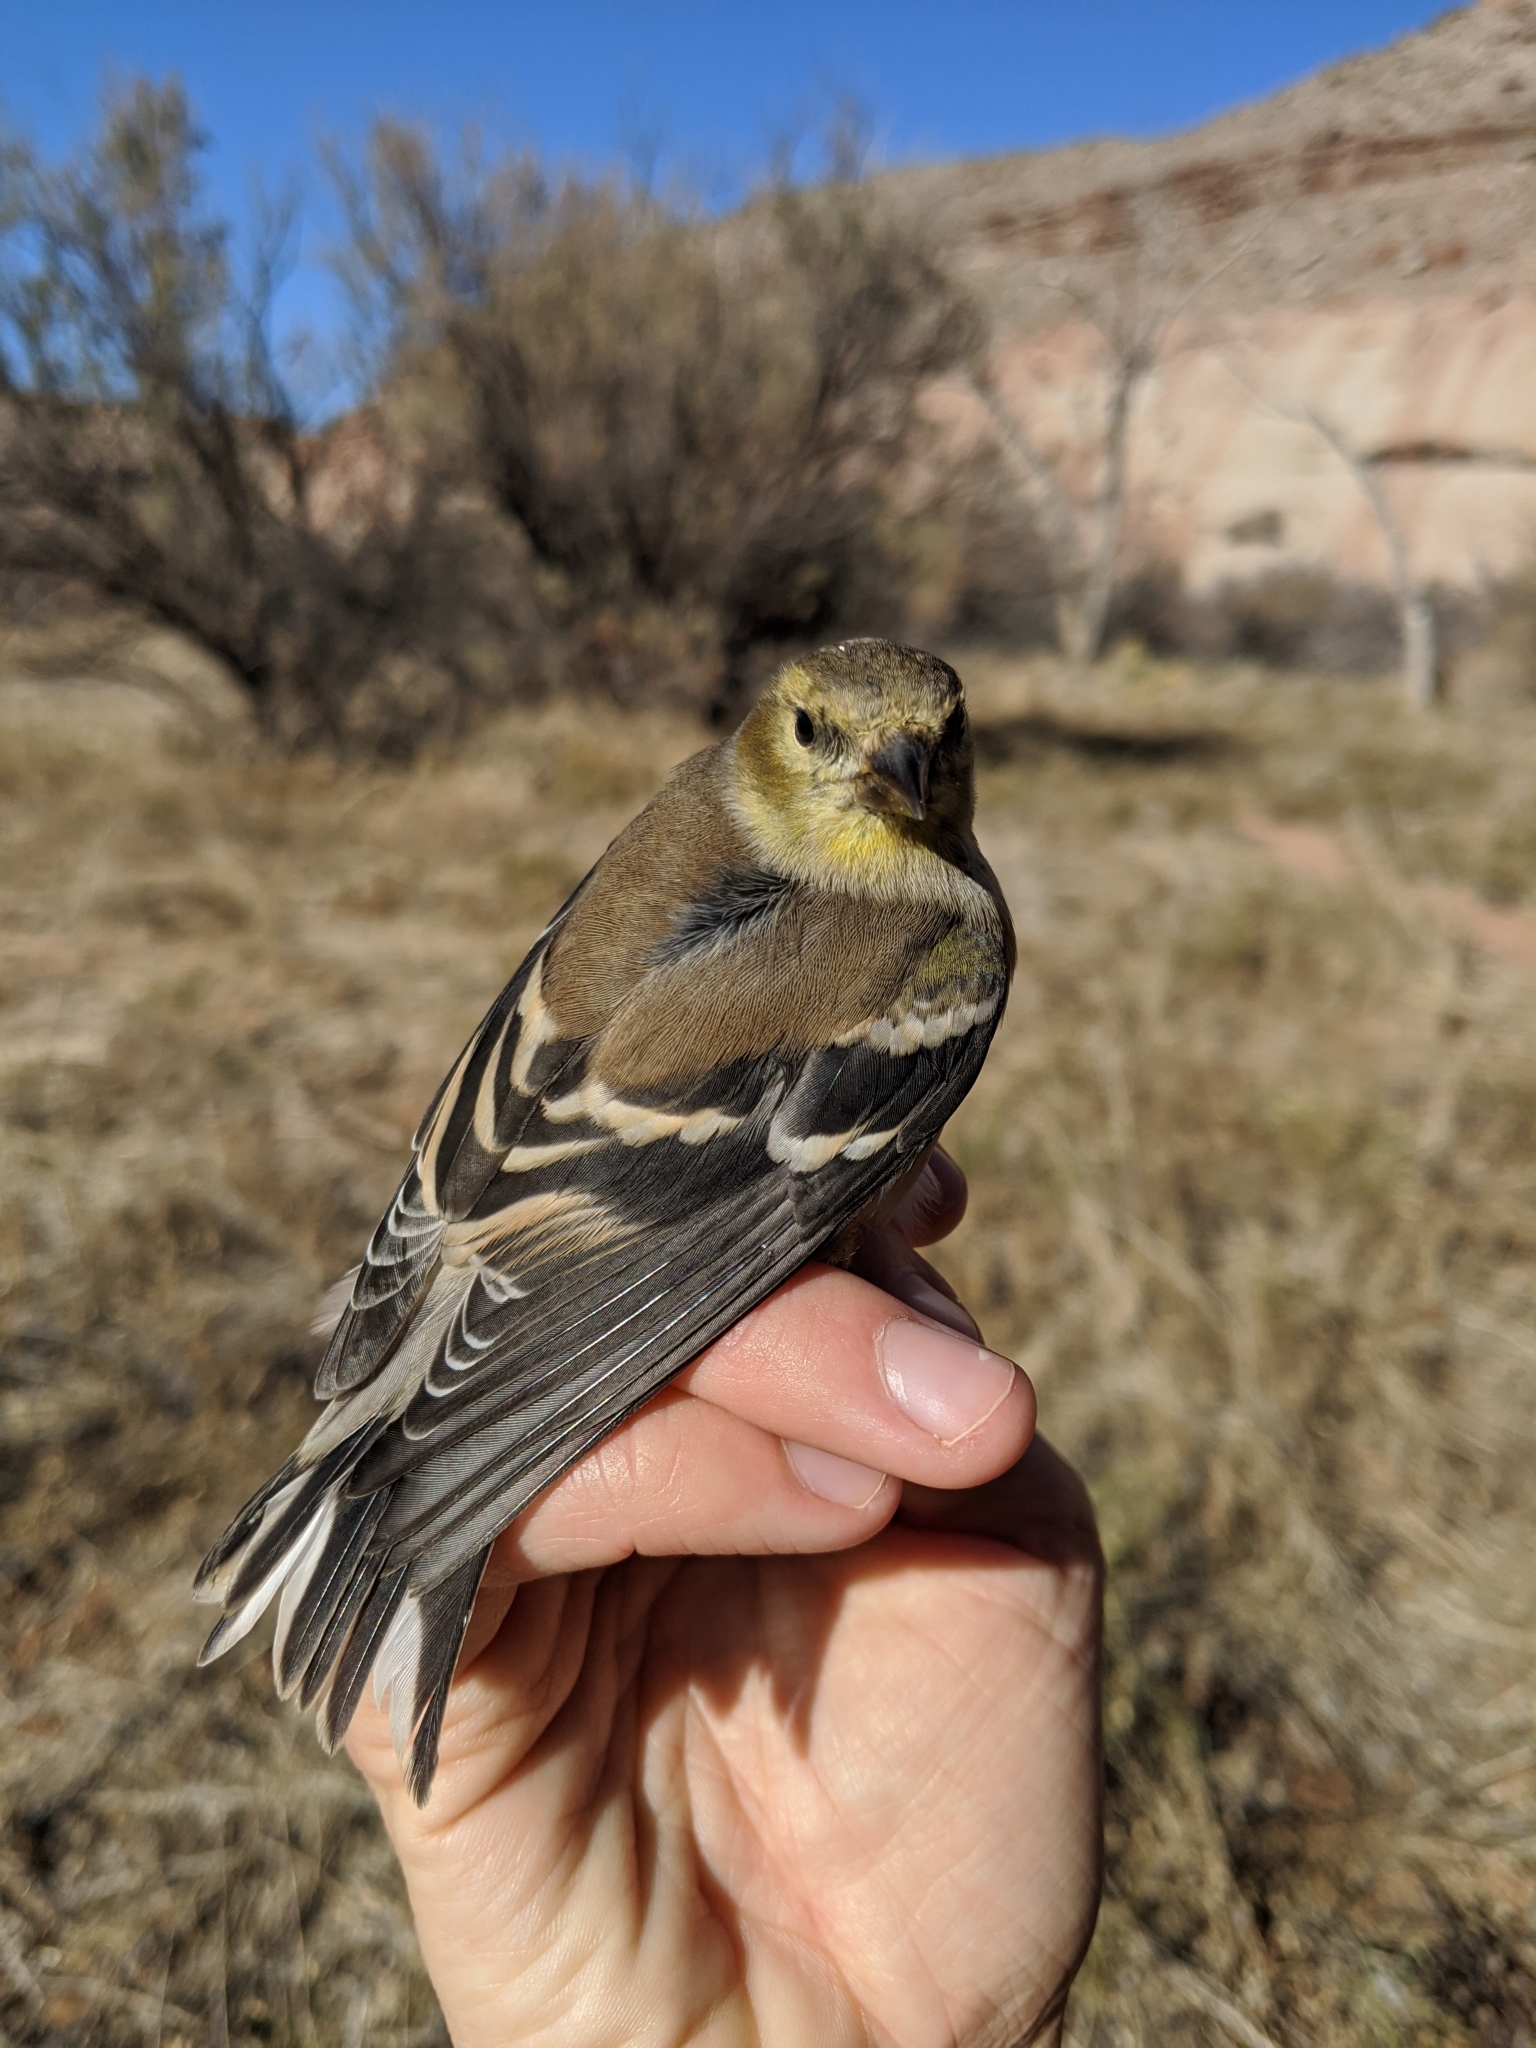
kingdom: Animalia
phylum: Chordata
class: Aves
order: Passeriformes
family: Fringillidae
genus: Spinus
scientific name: Spinus tristis
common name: American goldfinch
